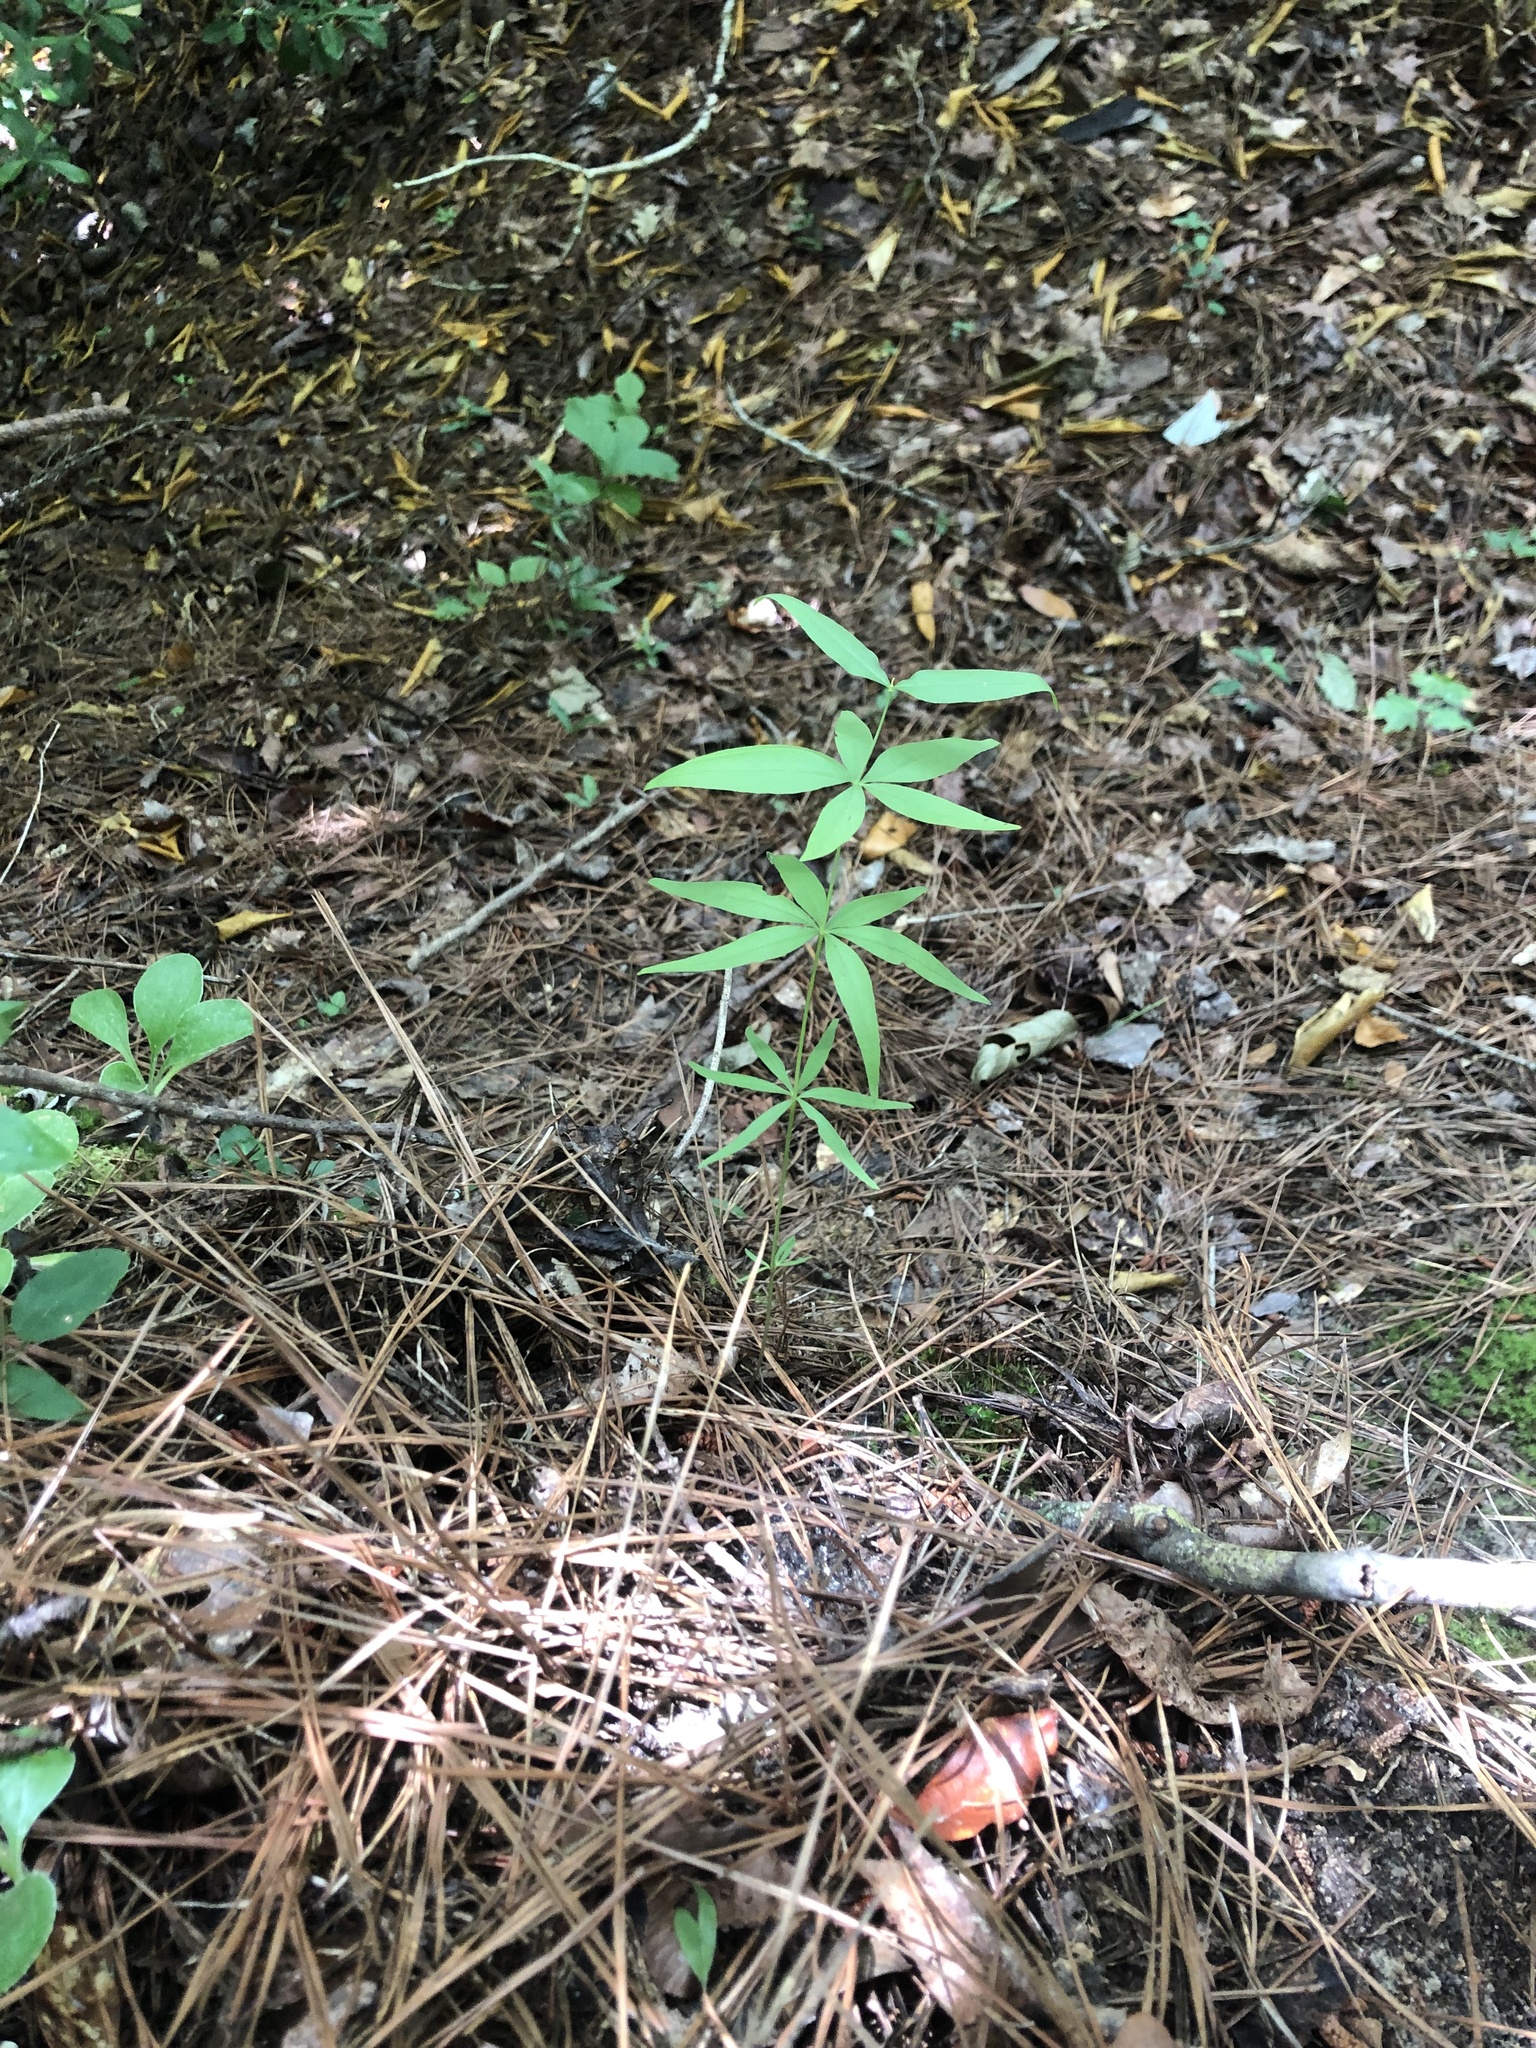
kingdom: Plantae
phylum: Tracheophyta
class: Magnoliopsida
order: Asterales
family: Asteraceae
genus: Coreopsis
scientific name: Coreopsis major
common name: Forest tickseed
